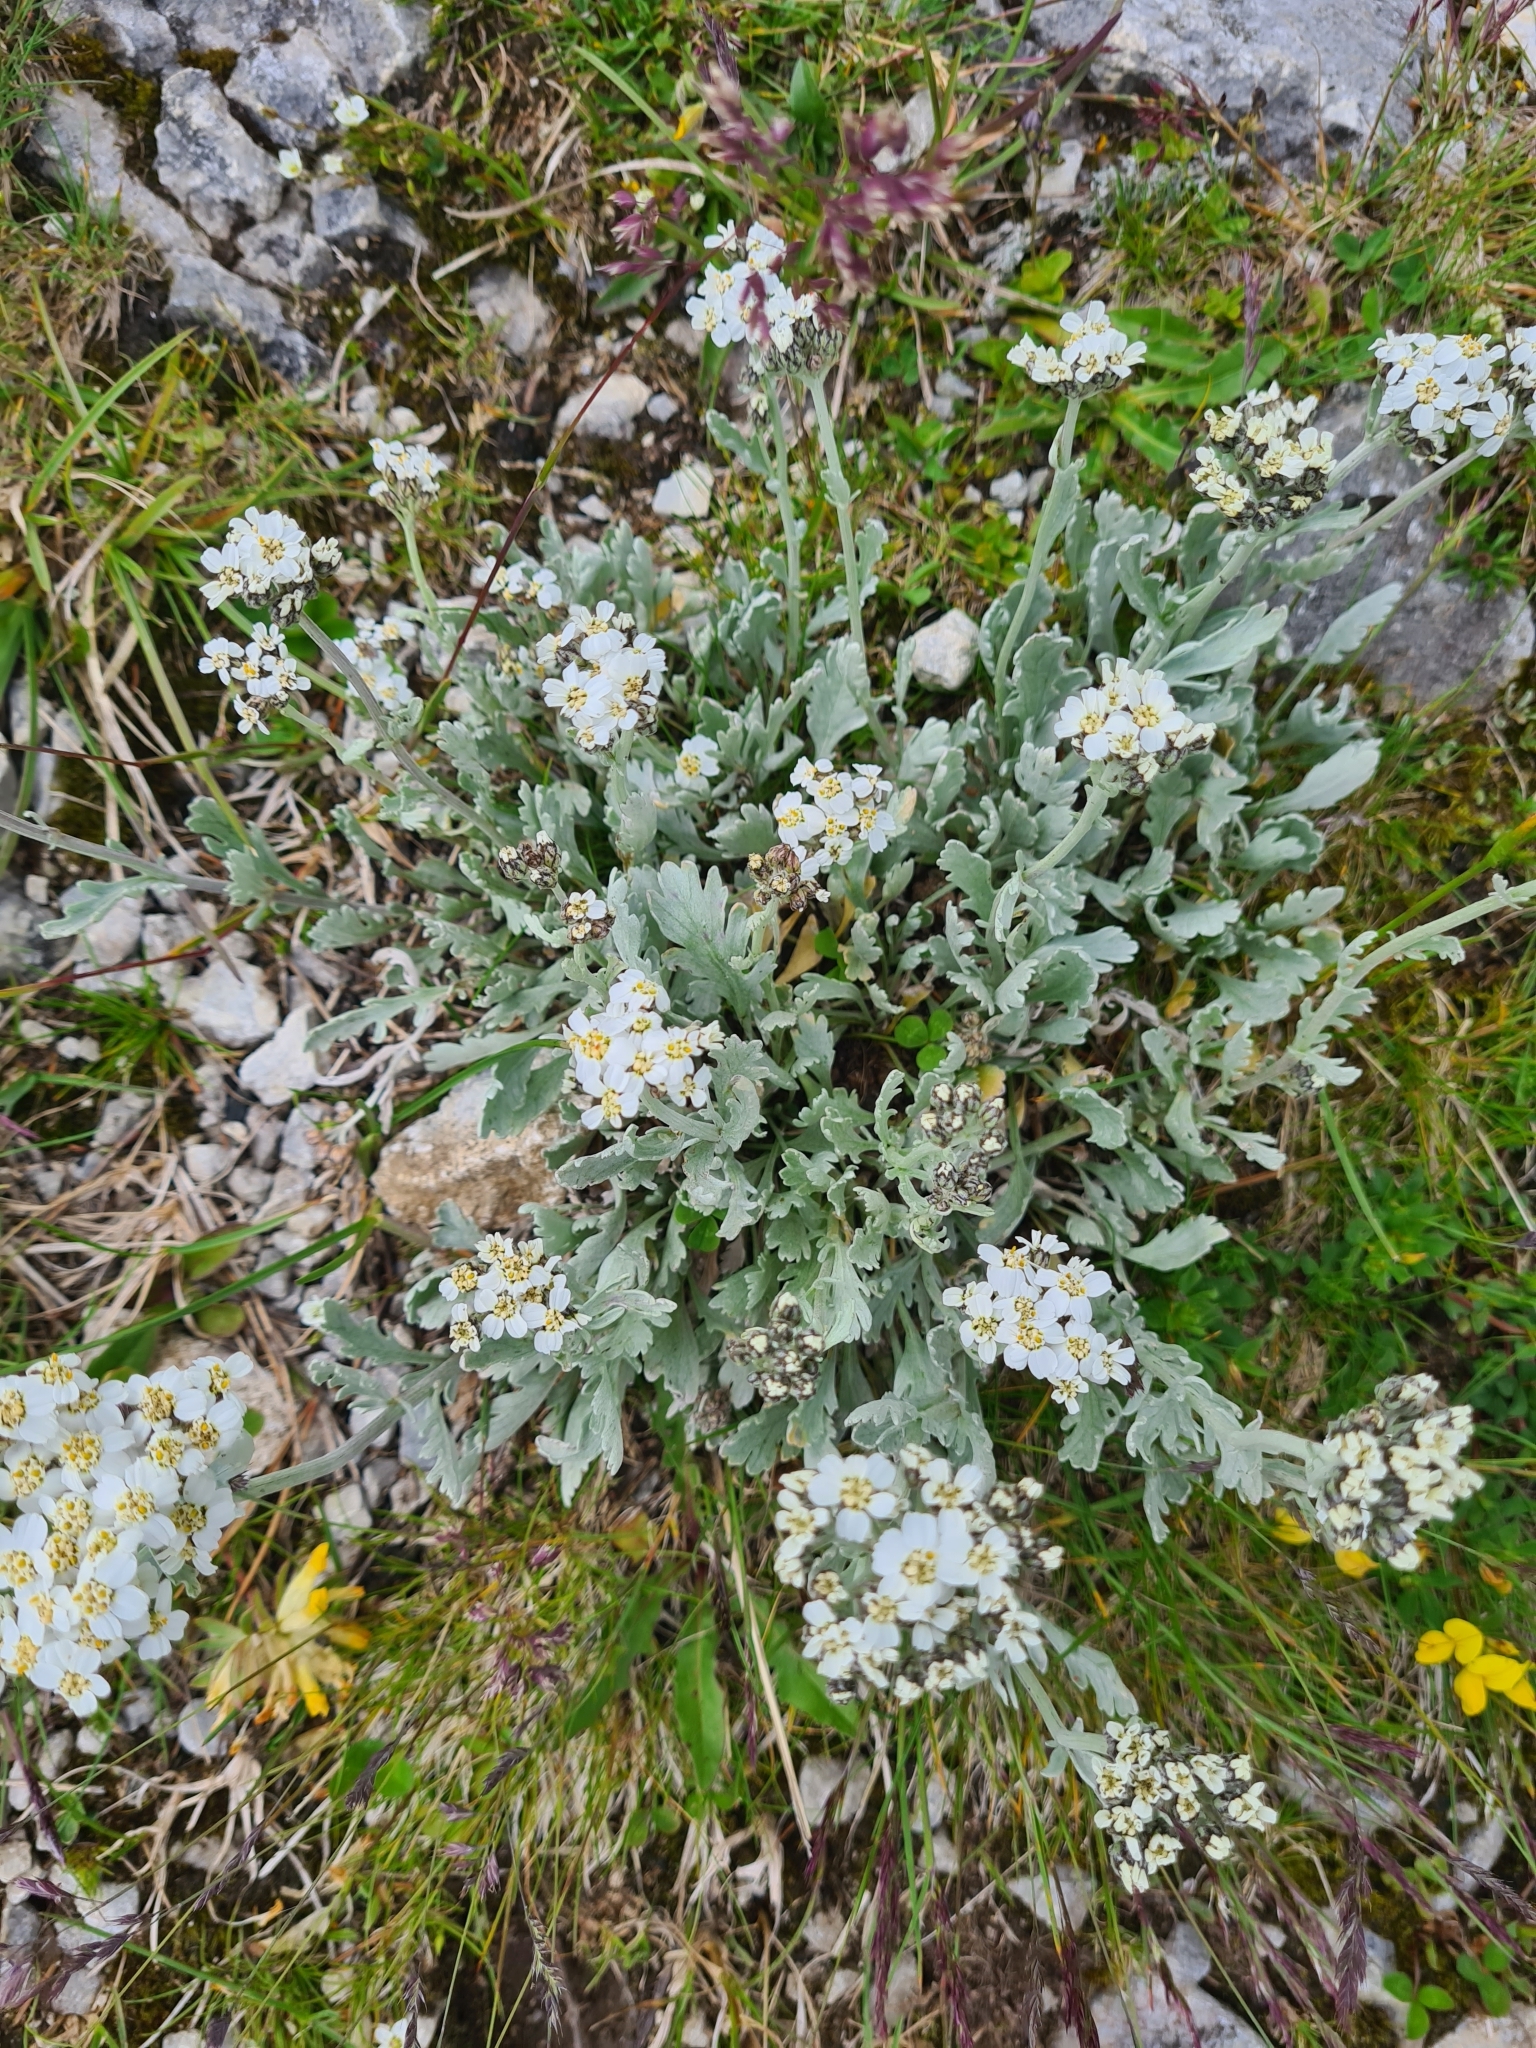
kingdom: Plantae
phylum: Tracheophyta
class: Magnoliopsida
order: Asterales
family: Asteraceae
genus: Achillea
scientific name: Achillea clavennae
